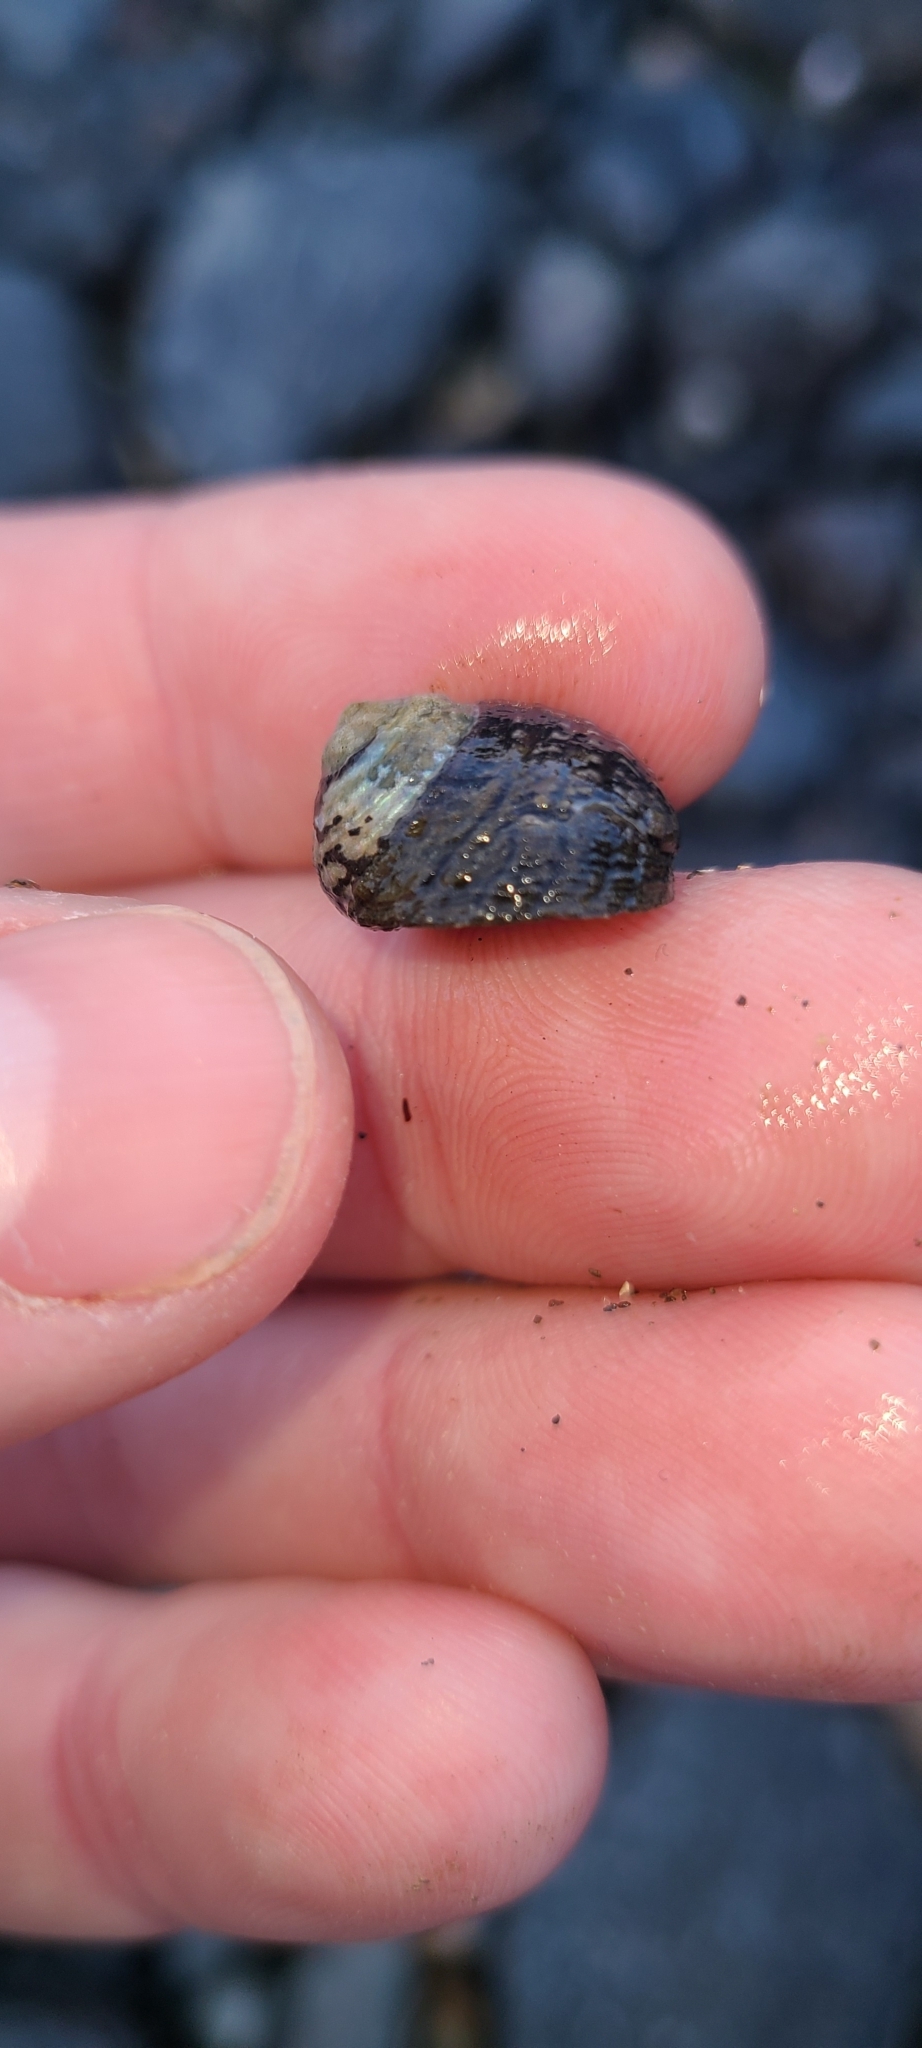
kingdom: Animalia
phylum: Mollusca
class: Gastropoda
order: Trochida
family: Trochidae
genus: Diloma
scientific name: Diloma aethiops
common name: Scorched monodont
